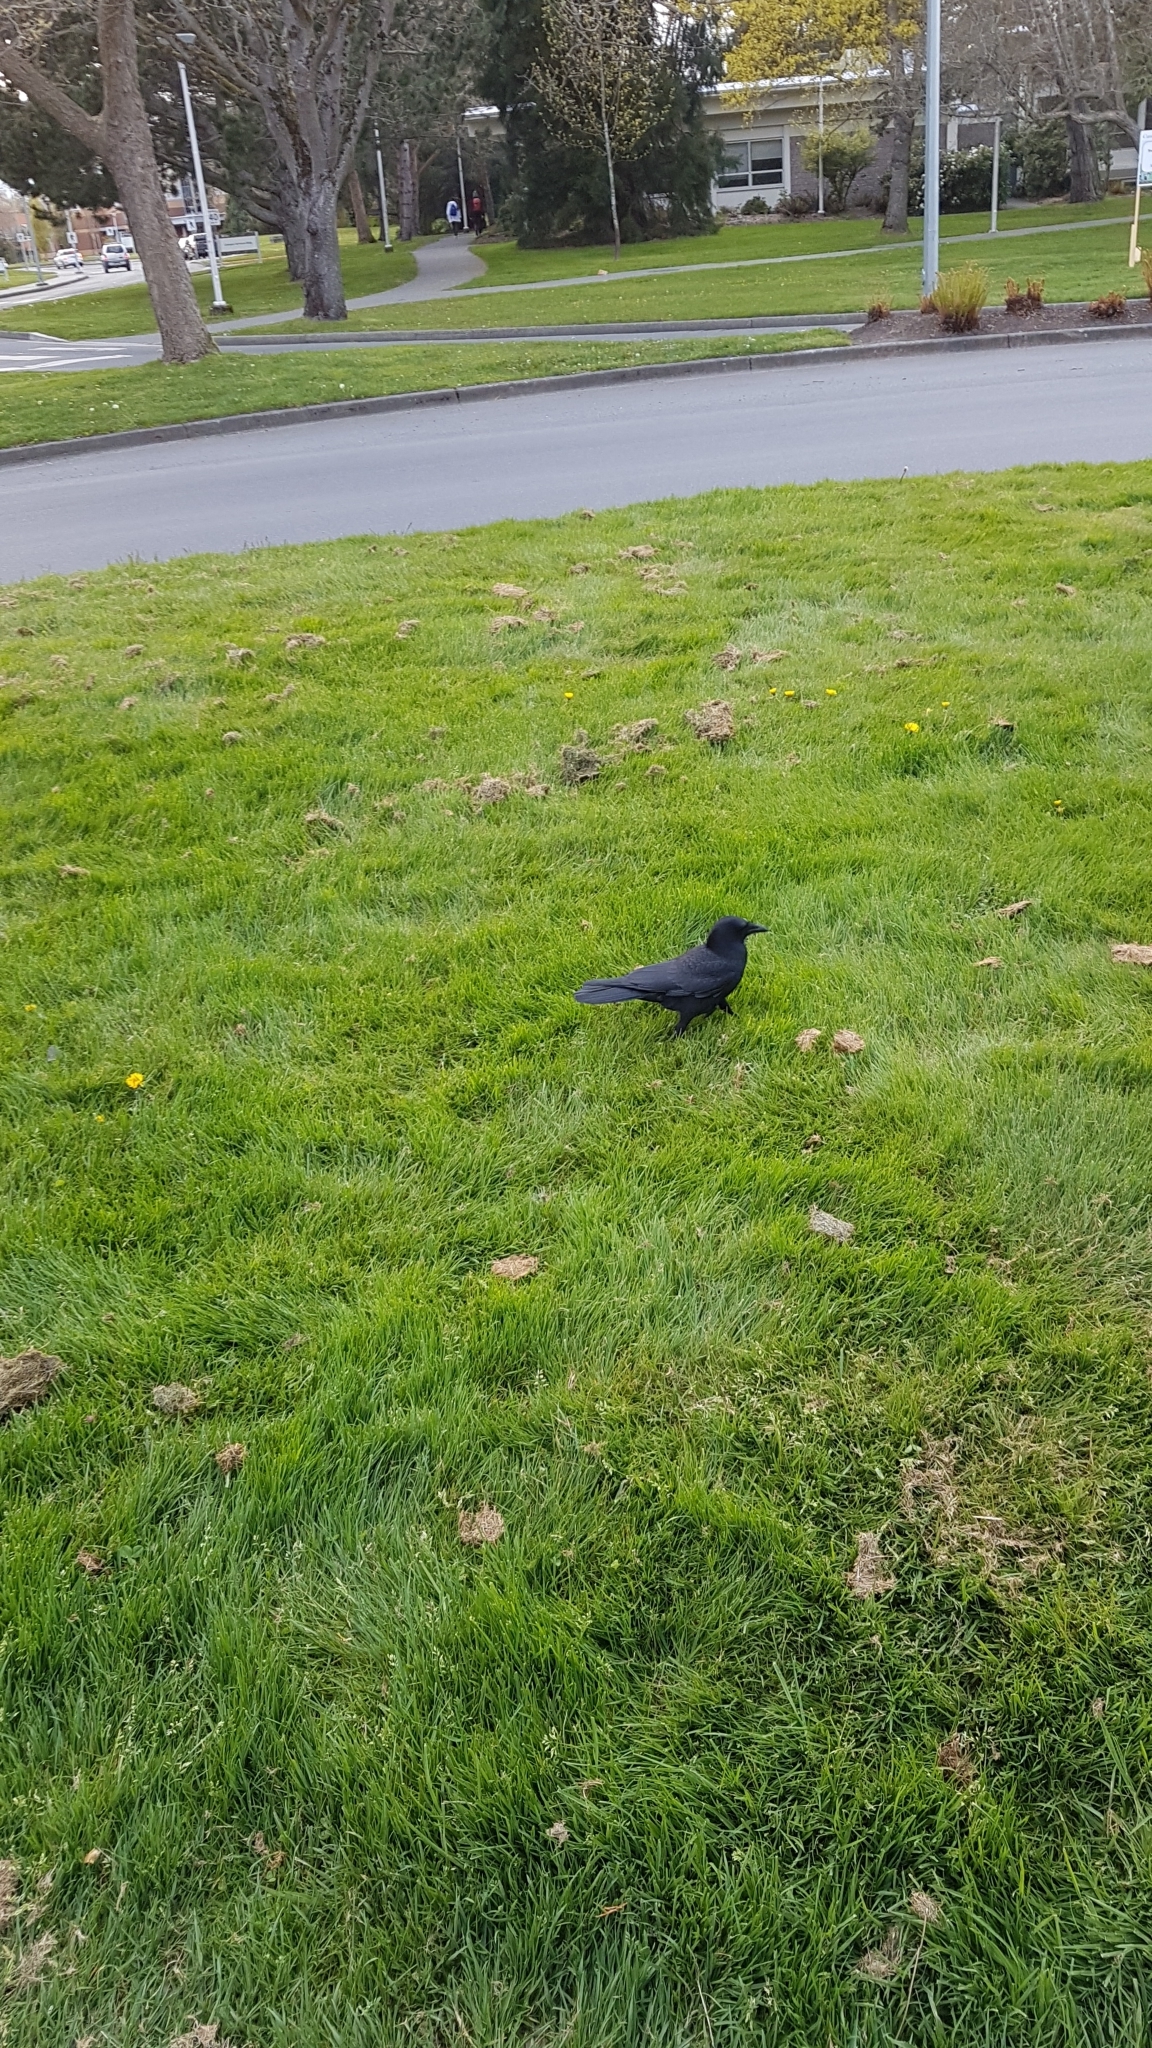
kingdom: Animalia
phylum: Chordata
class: Aves
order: Passeriformes
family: Corvidae
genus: Corvus
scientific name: Corvus brachyrhynchos
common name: American crow
